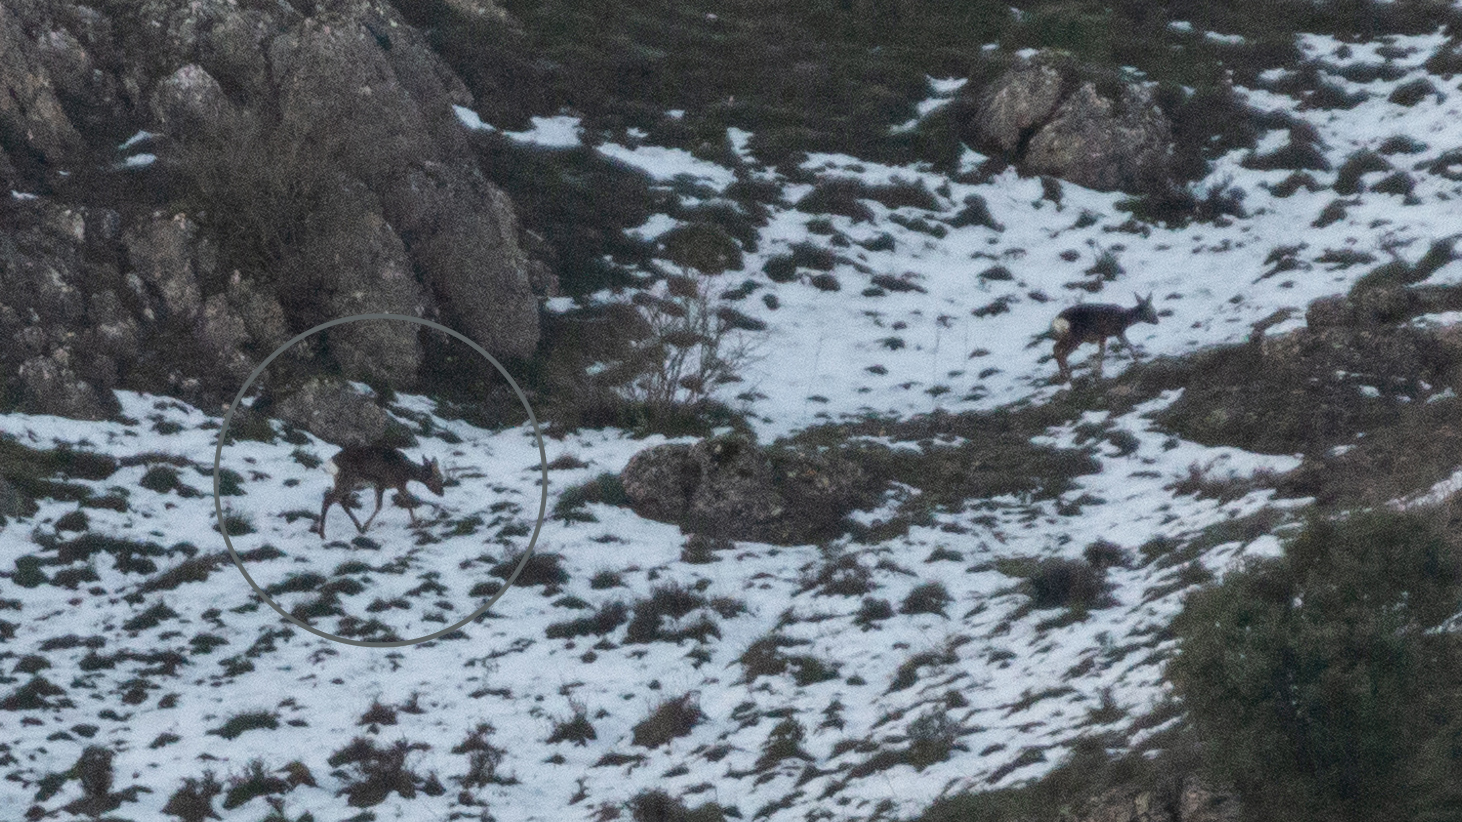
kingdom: Animalia
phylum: Chordata
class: Mammalia
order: Artiodactyla
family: Cervidae
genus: Capreolus
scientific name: Capreolus capreolus
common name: Western roe deer
